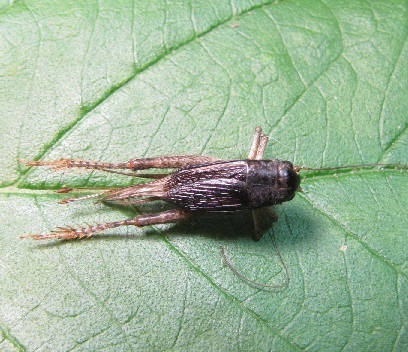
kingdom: Animalia
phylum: Arthropoda
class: Insecta
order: Orthoptera
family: Gryllidae
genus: Velarifictorus
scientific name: Velarifictorus micado
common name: Japanese burrowing cricket
